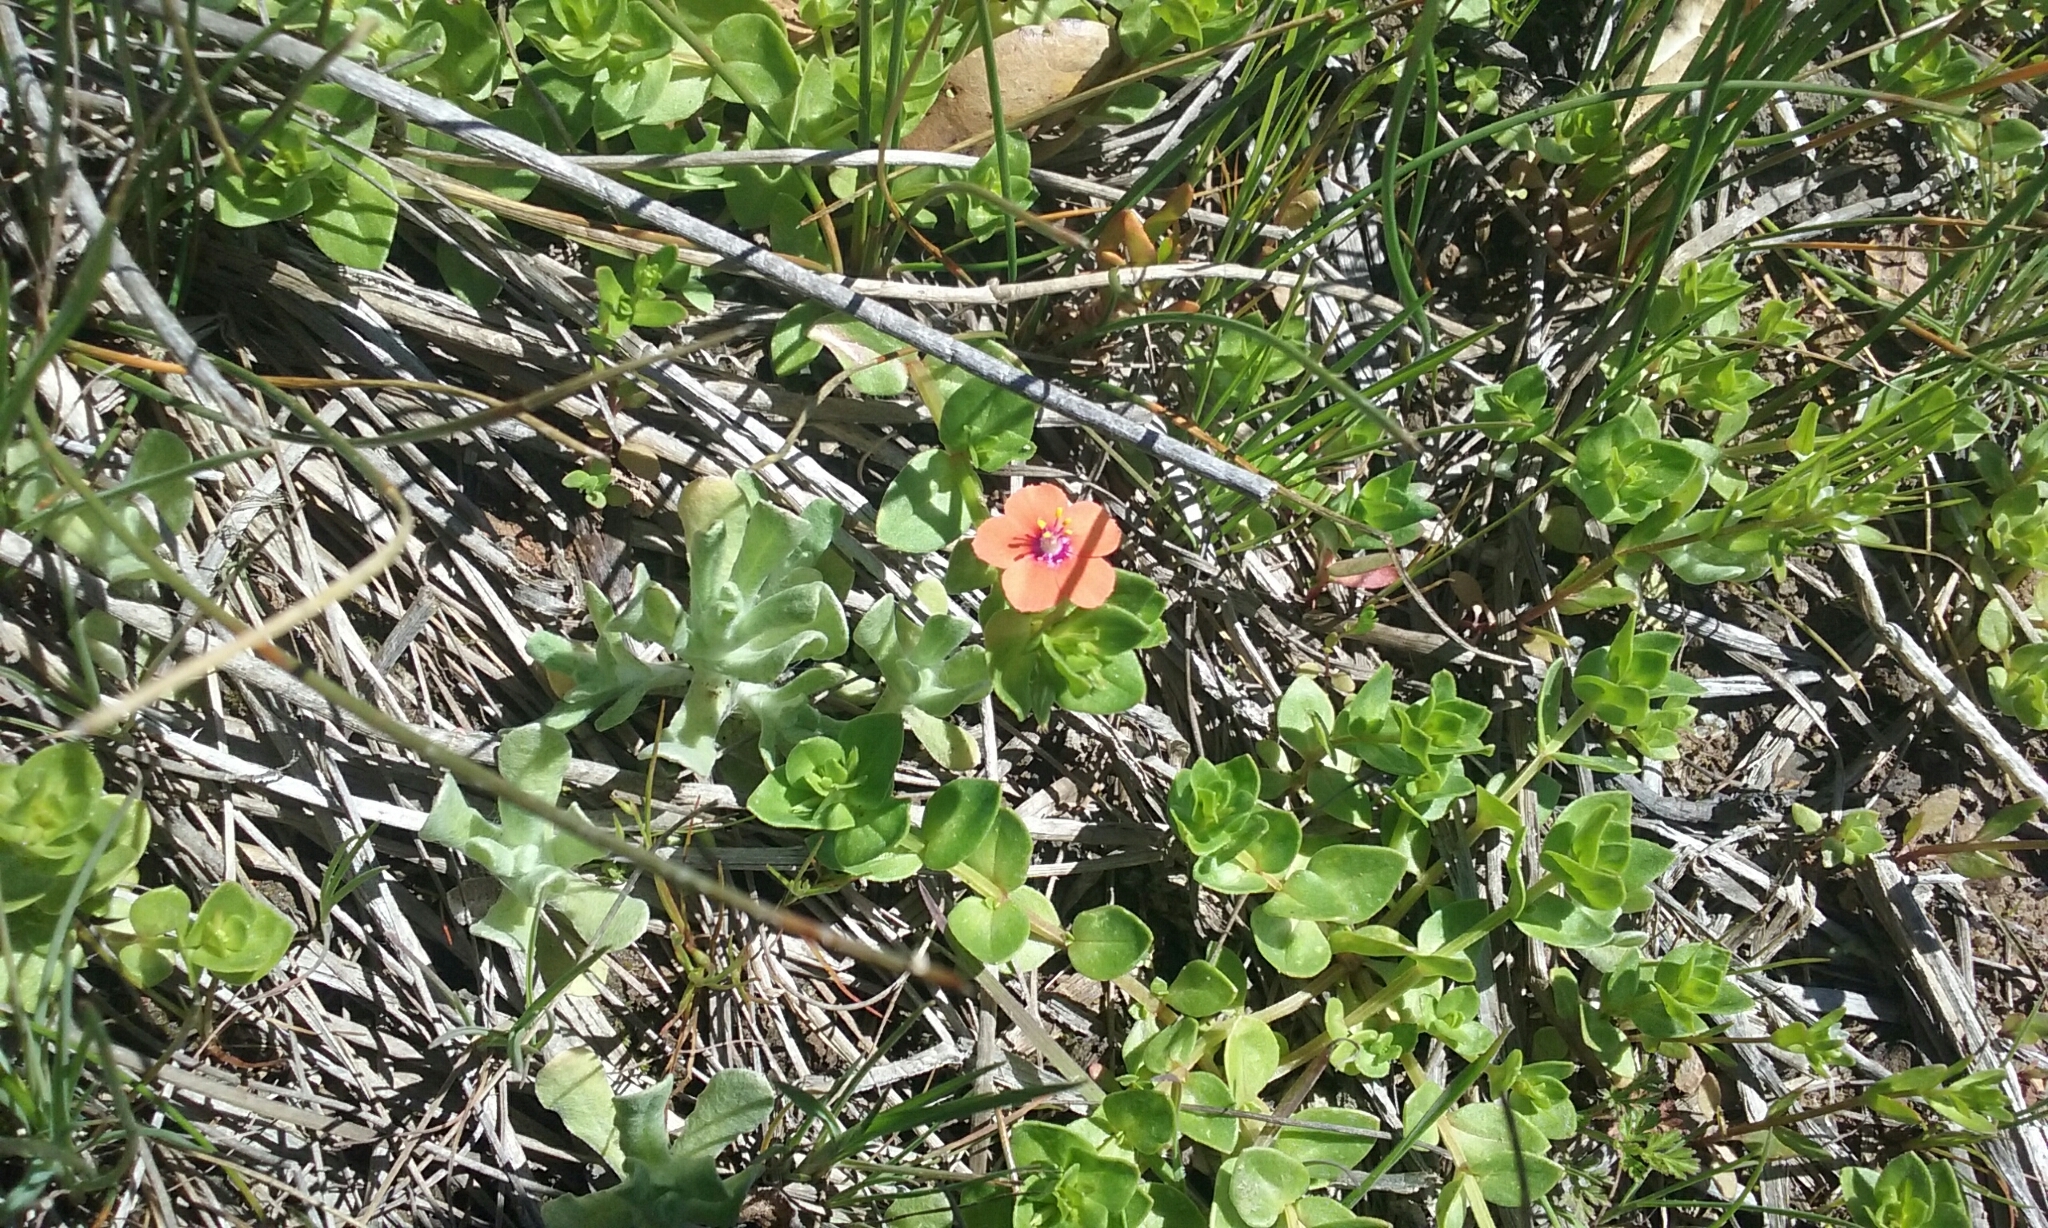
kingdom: Plantae
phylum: Tracheophyta
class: Magnoliopsida
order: Ericales
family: Primulaceae
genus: Lysimachia
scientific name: Lysimachia arvensis
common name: Scarlet pimpernel
